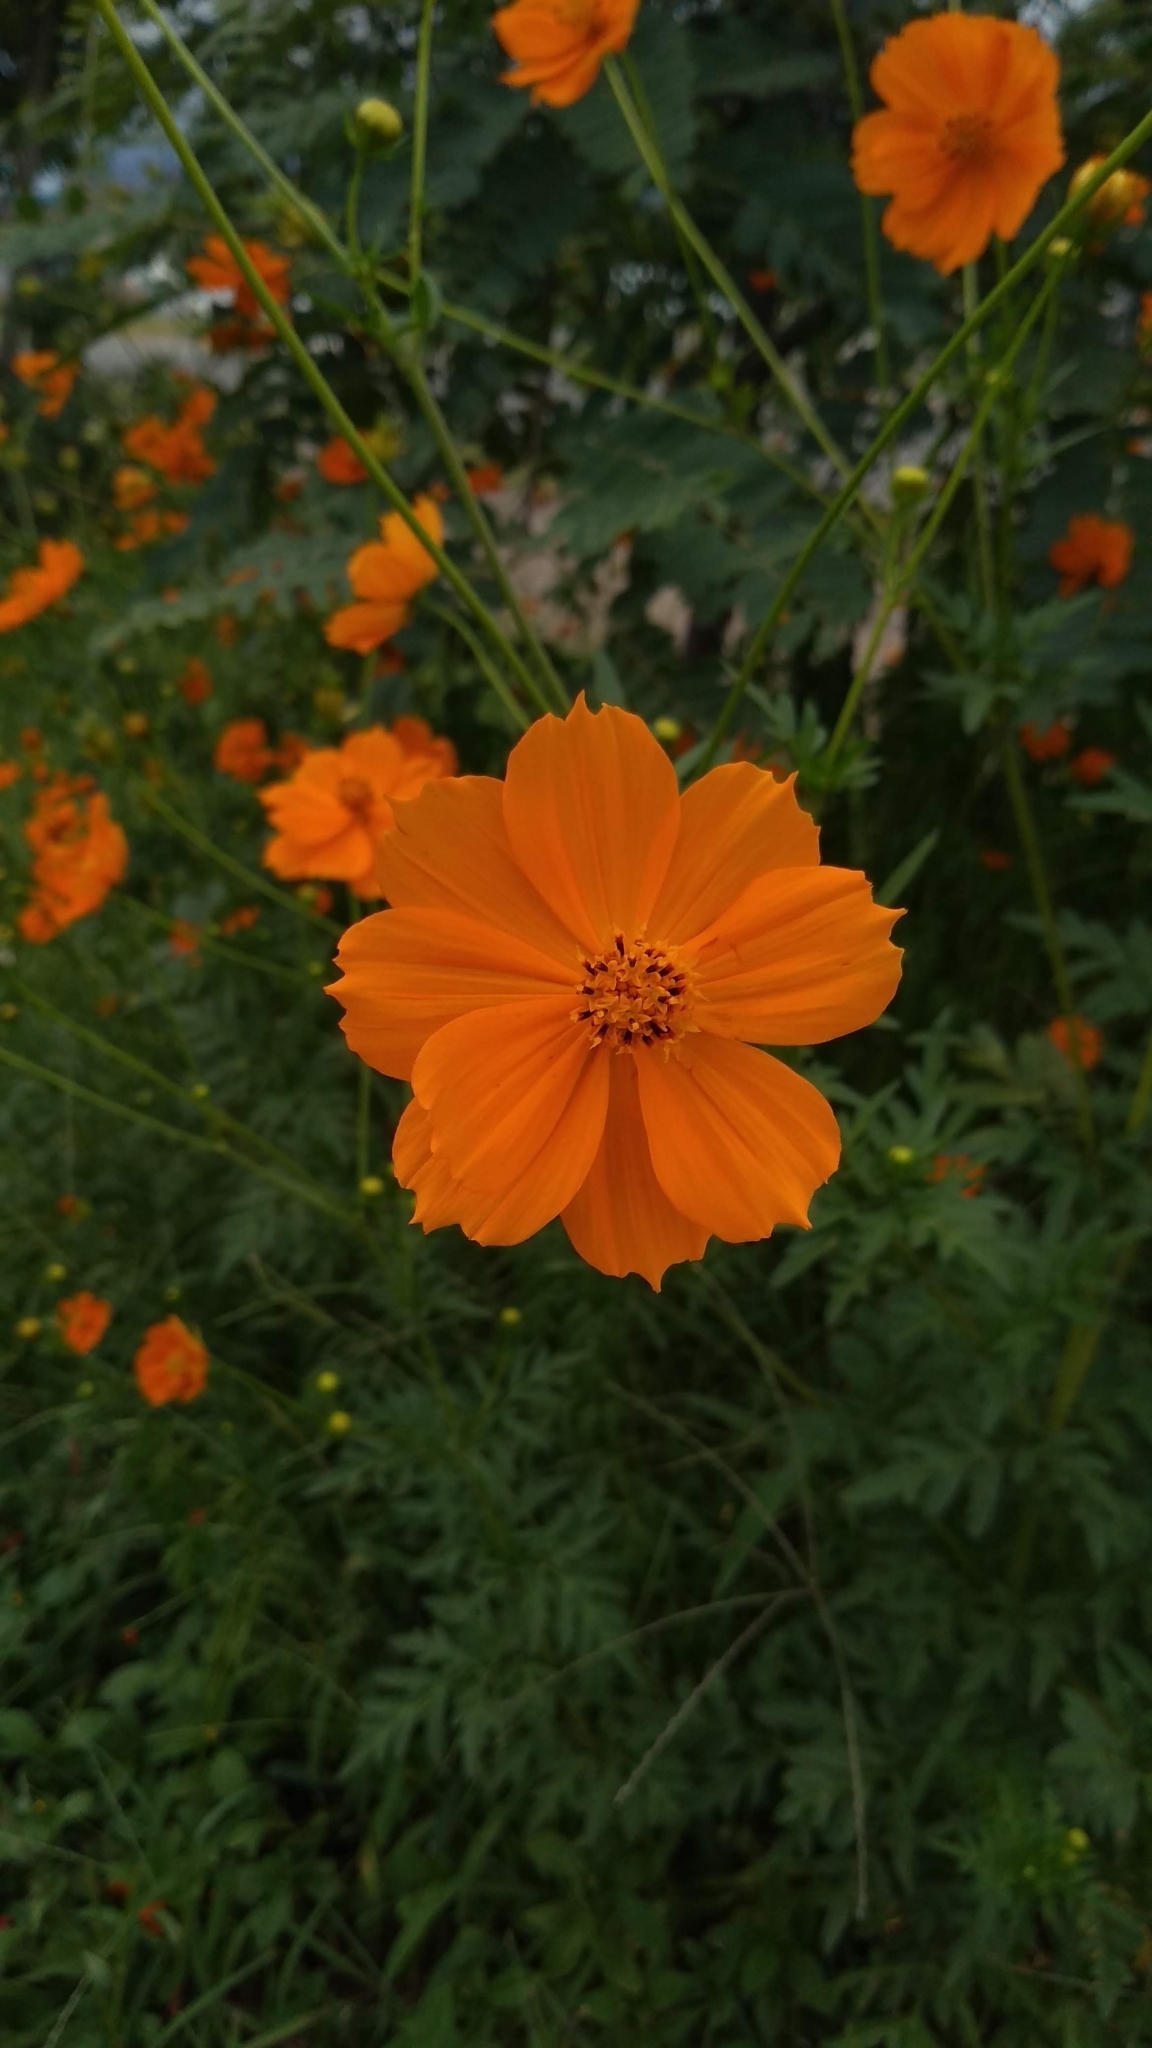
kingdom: Plantae
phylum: Tracheophyta
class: Magnoliopsida
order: Asterales
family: Asteraceae
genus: Cosmos
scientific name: Cosmos sulphureus
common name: Sulphur cosmos
